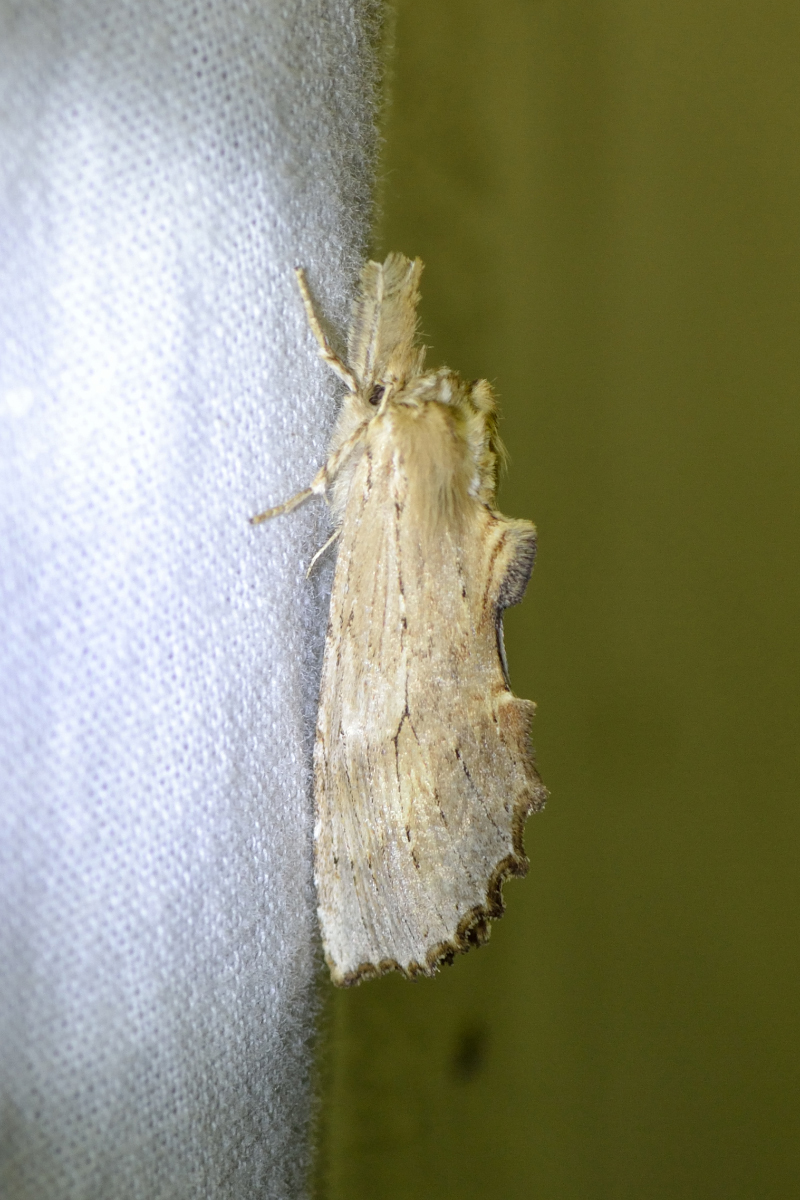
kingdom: Animalia
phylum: Arthropoda
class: Insecta
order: Lepidoptera
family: Notodontidae
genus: Pterostoma
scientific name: Pterostoma palpina
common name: Pale prominent
